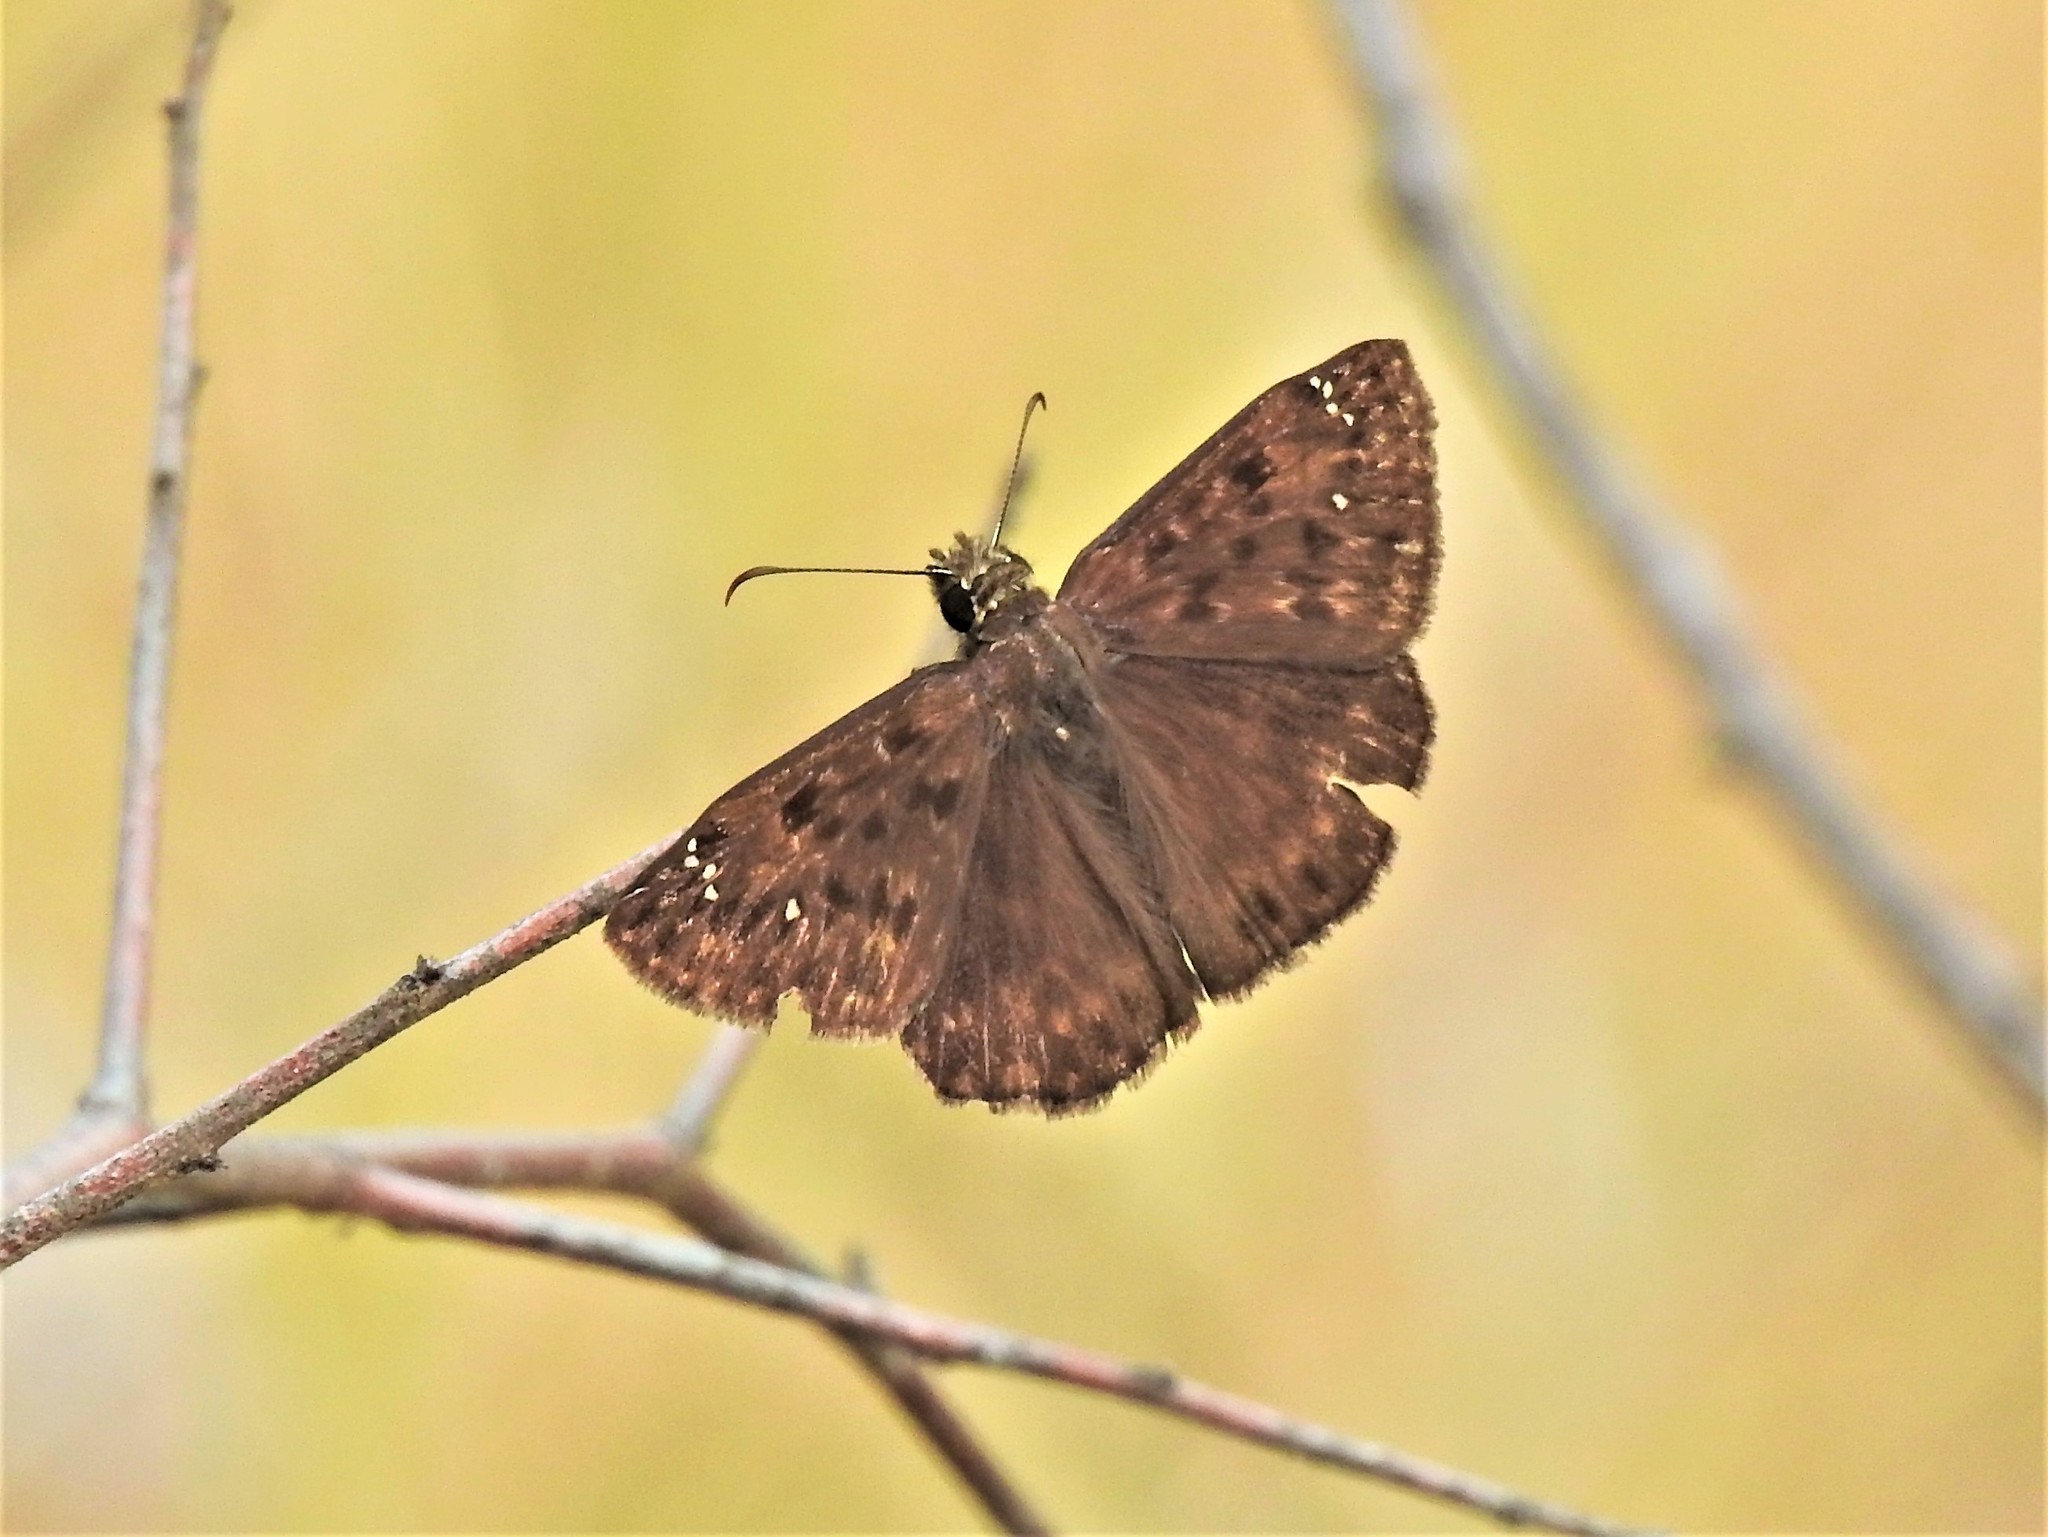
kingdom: Animalia
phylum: Arthropoda
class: Insecta
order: Lepidoptera
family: Hesperiidae
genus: Erynnis
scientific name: Erynnis horatius
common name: Horace's duskywing
